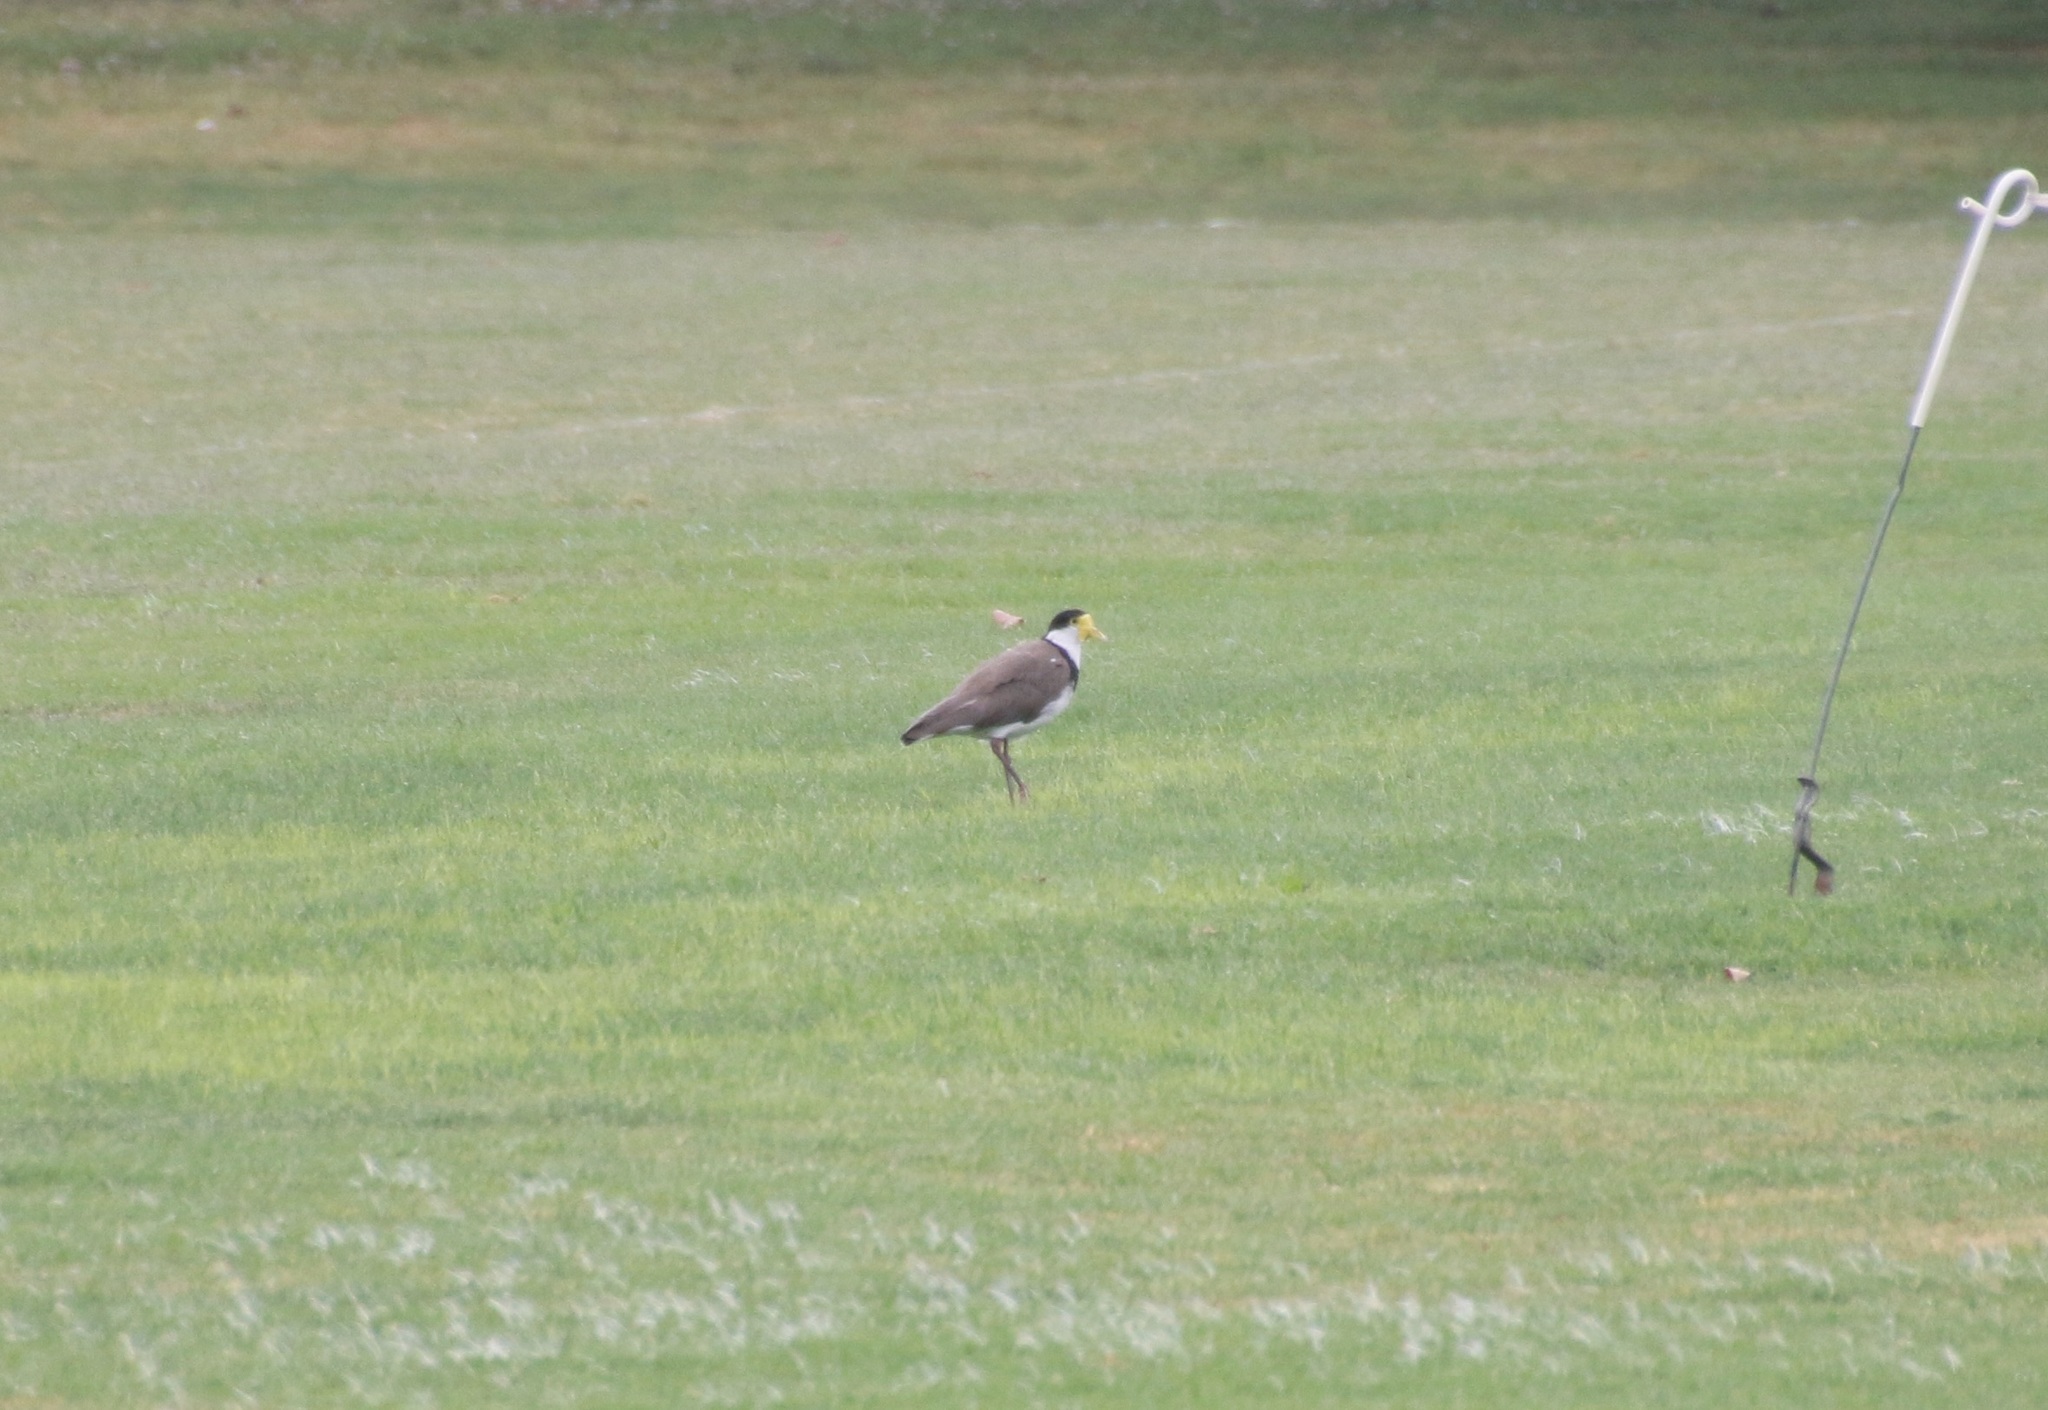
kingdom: Animalia
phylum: Chordata
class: Aves
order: Charadriiformes
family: Charadriidae
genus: Vanellus
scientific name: Vanellus miles
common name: Masked lapwing
